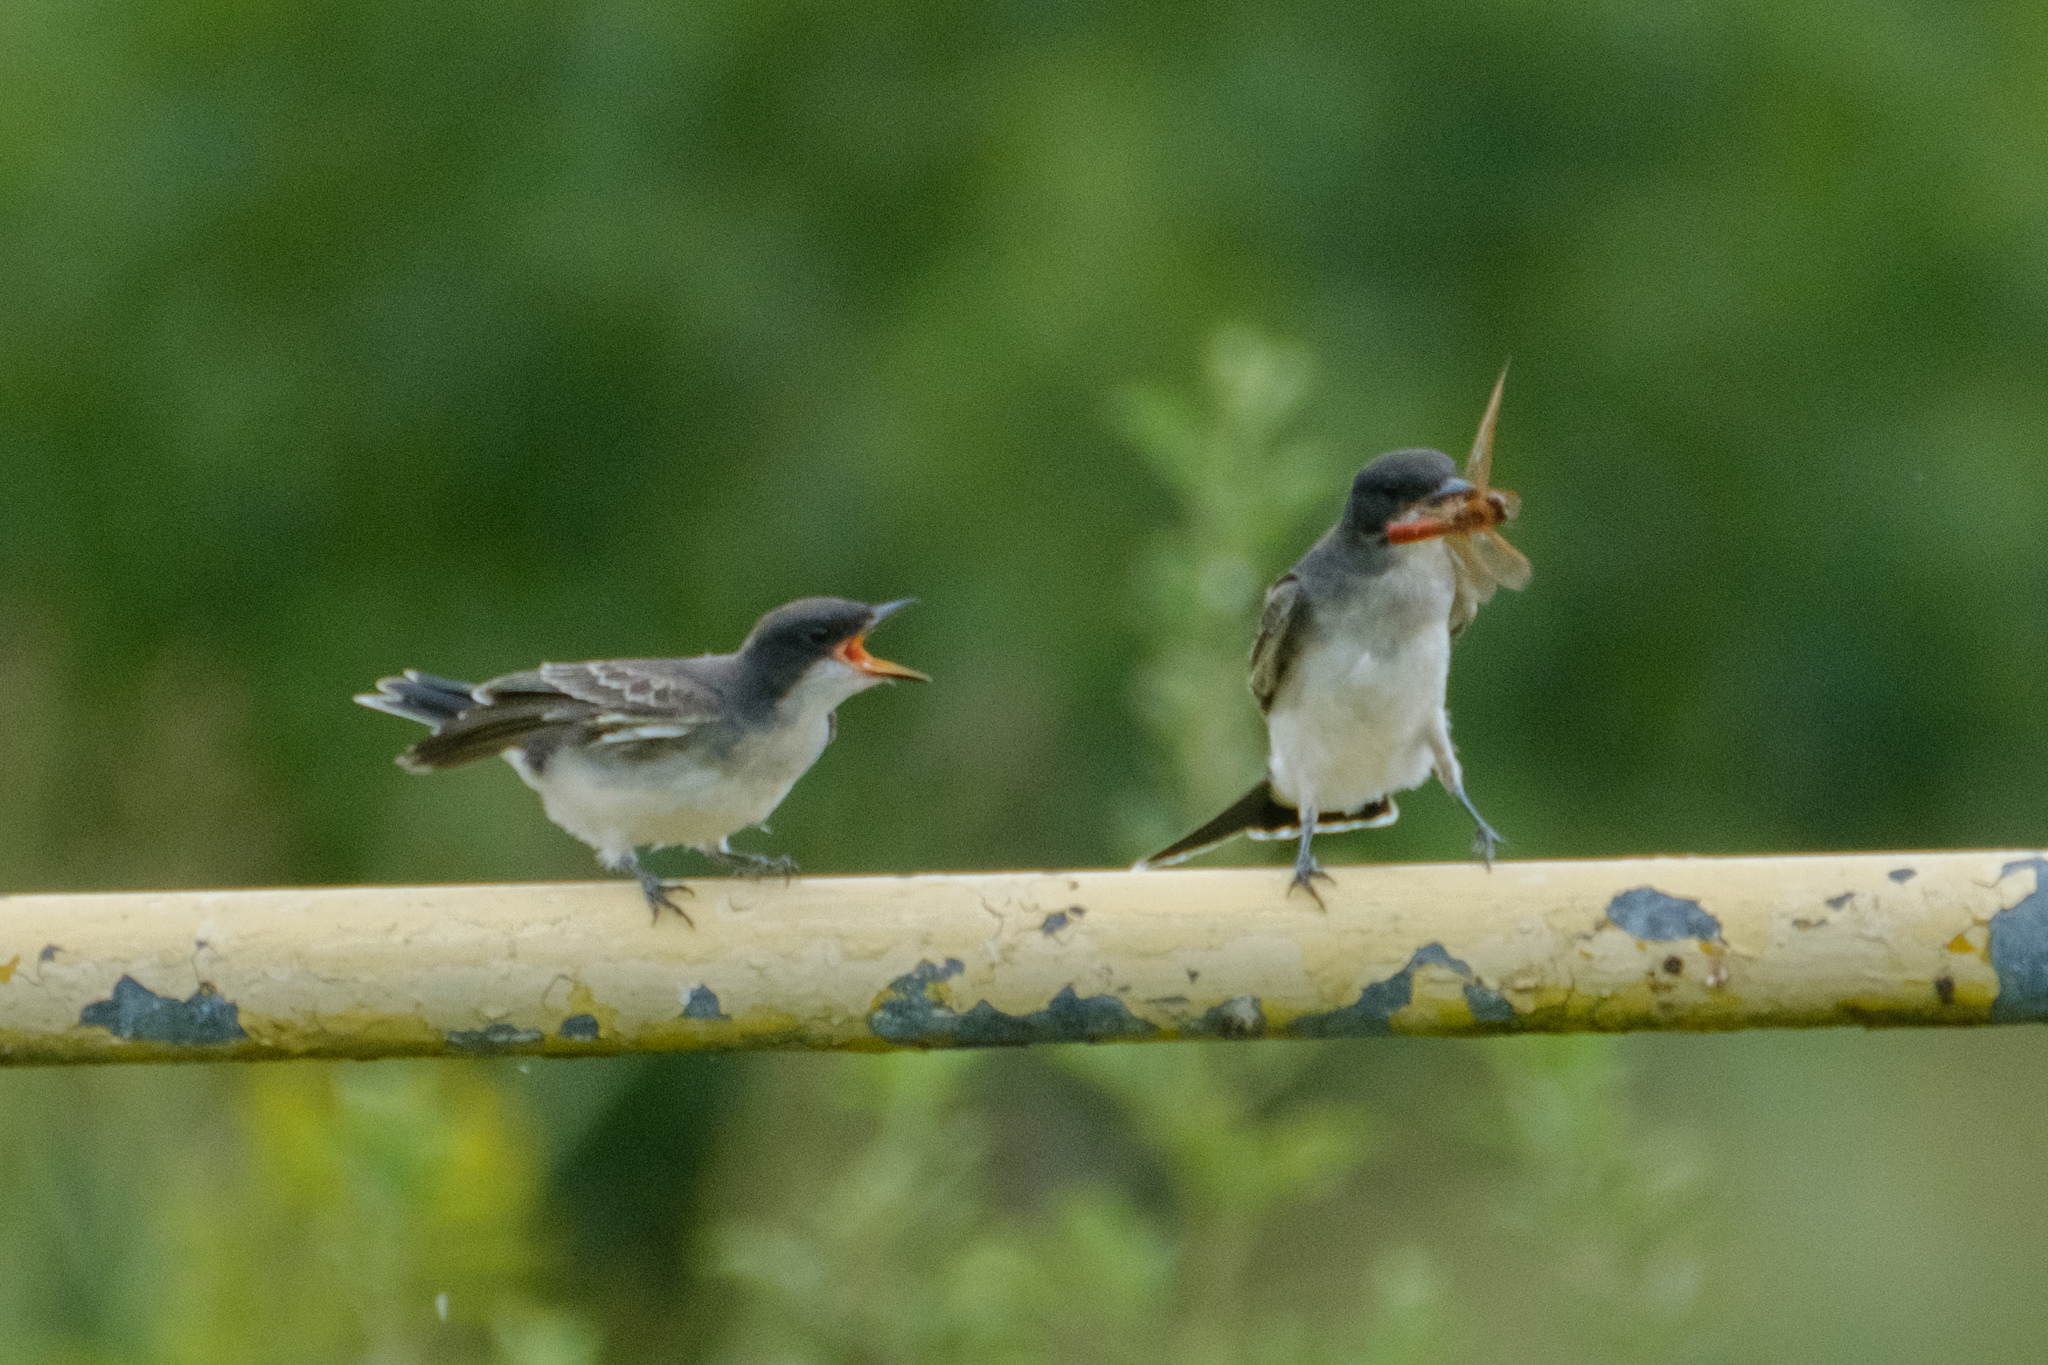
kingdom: Animalia
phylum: Chordata
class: Aves
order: Passeriformes
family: Tyrannidae
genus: Tyrannus
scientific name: Tyrannus tyrannus
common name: Eastern kingbird
